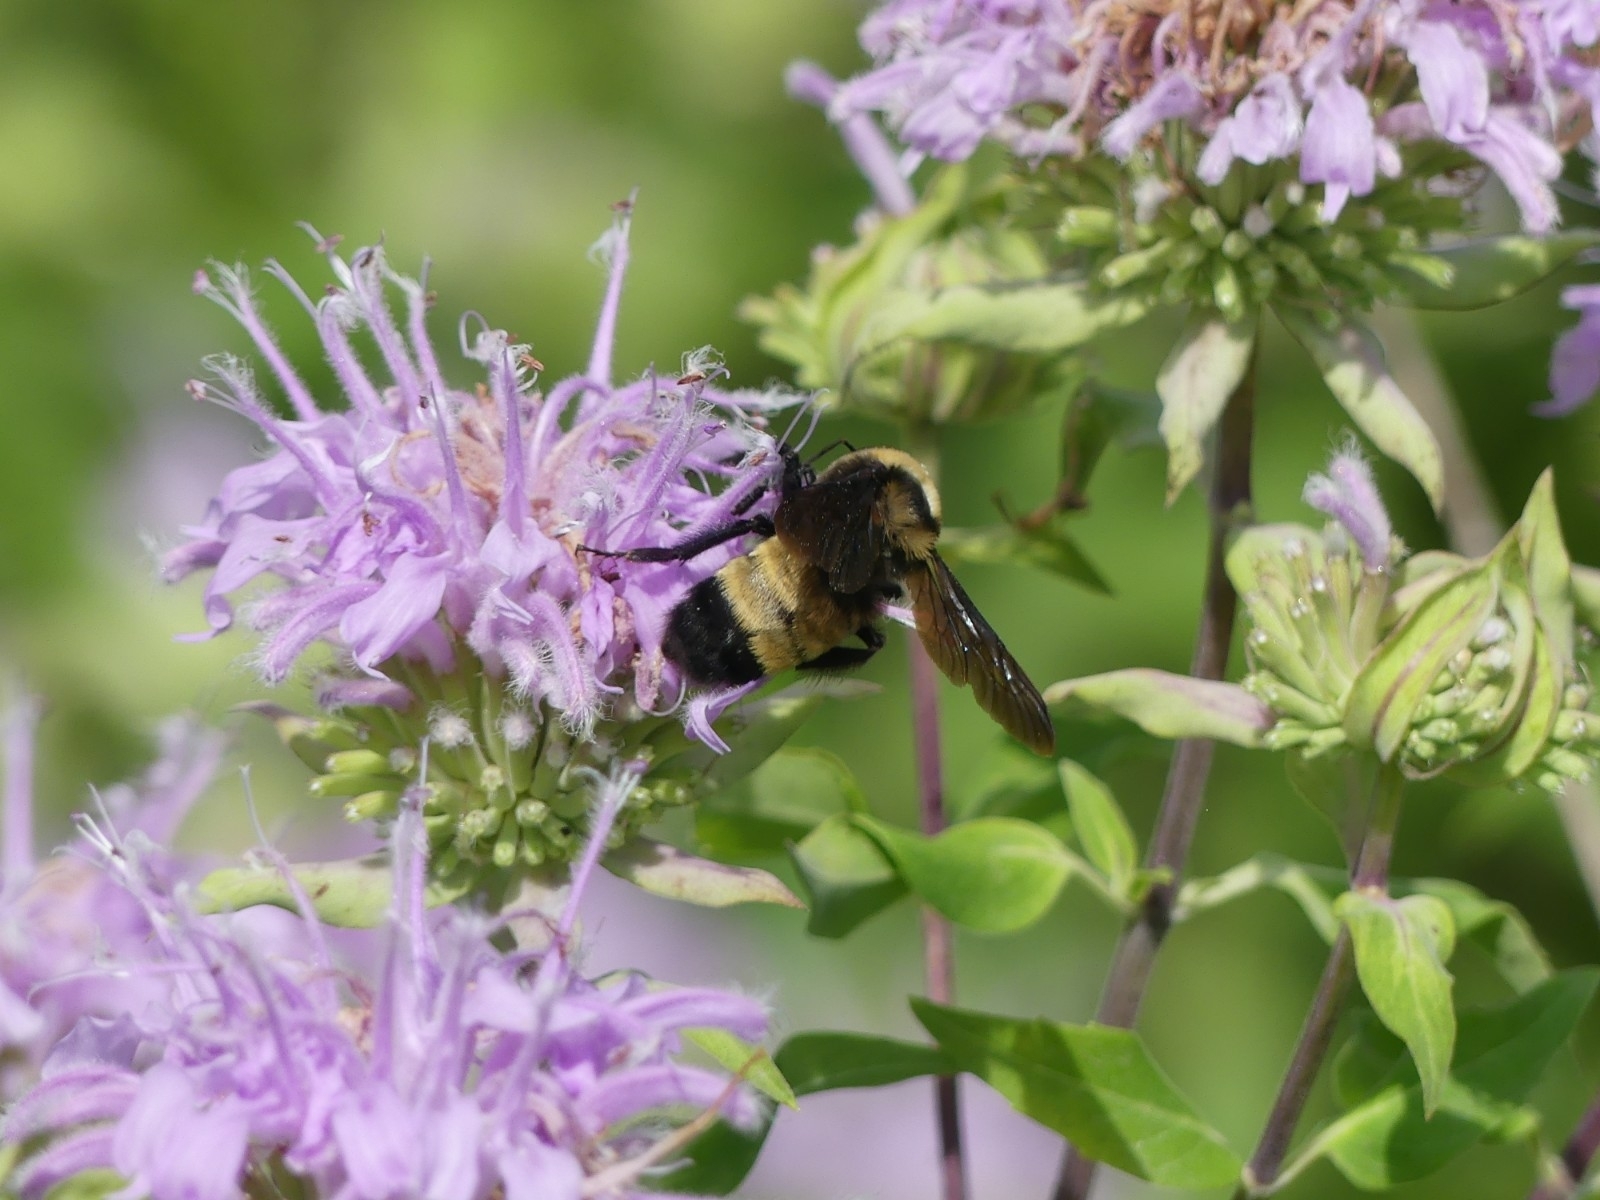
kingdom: Animalia
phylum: Arthropoda
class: Insecta
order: Hymenoptera
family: Apidae
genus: Bombus
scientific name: Bombus auricomus
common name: Black and gold bumble bee
